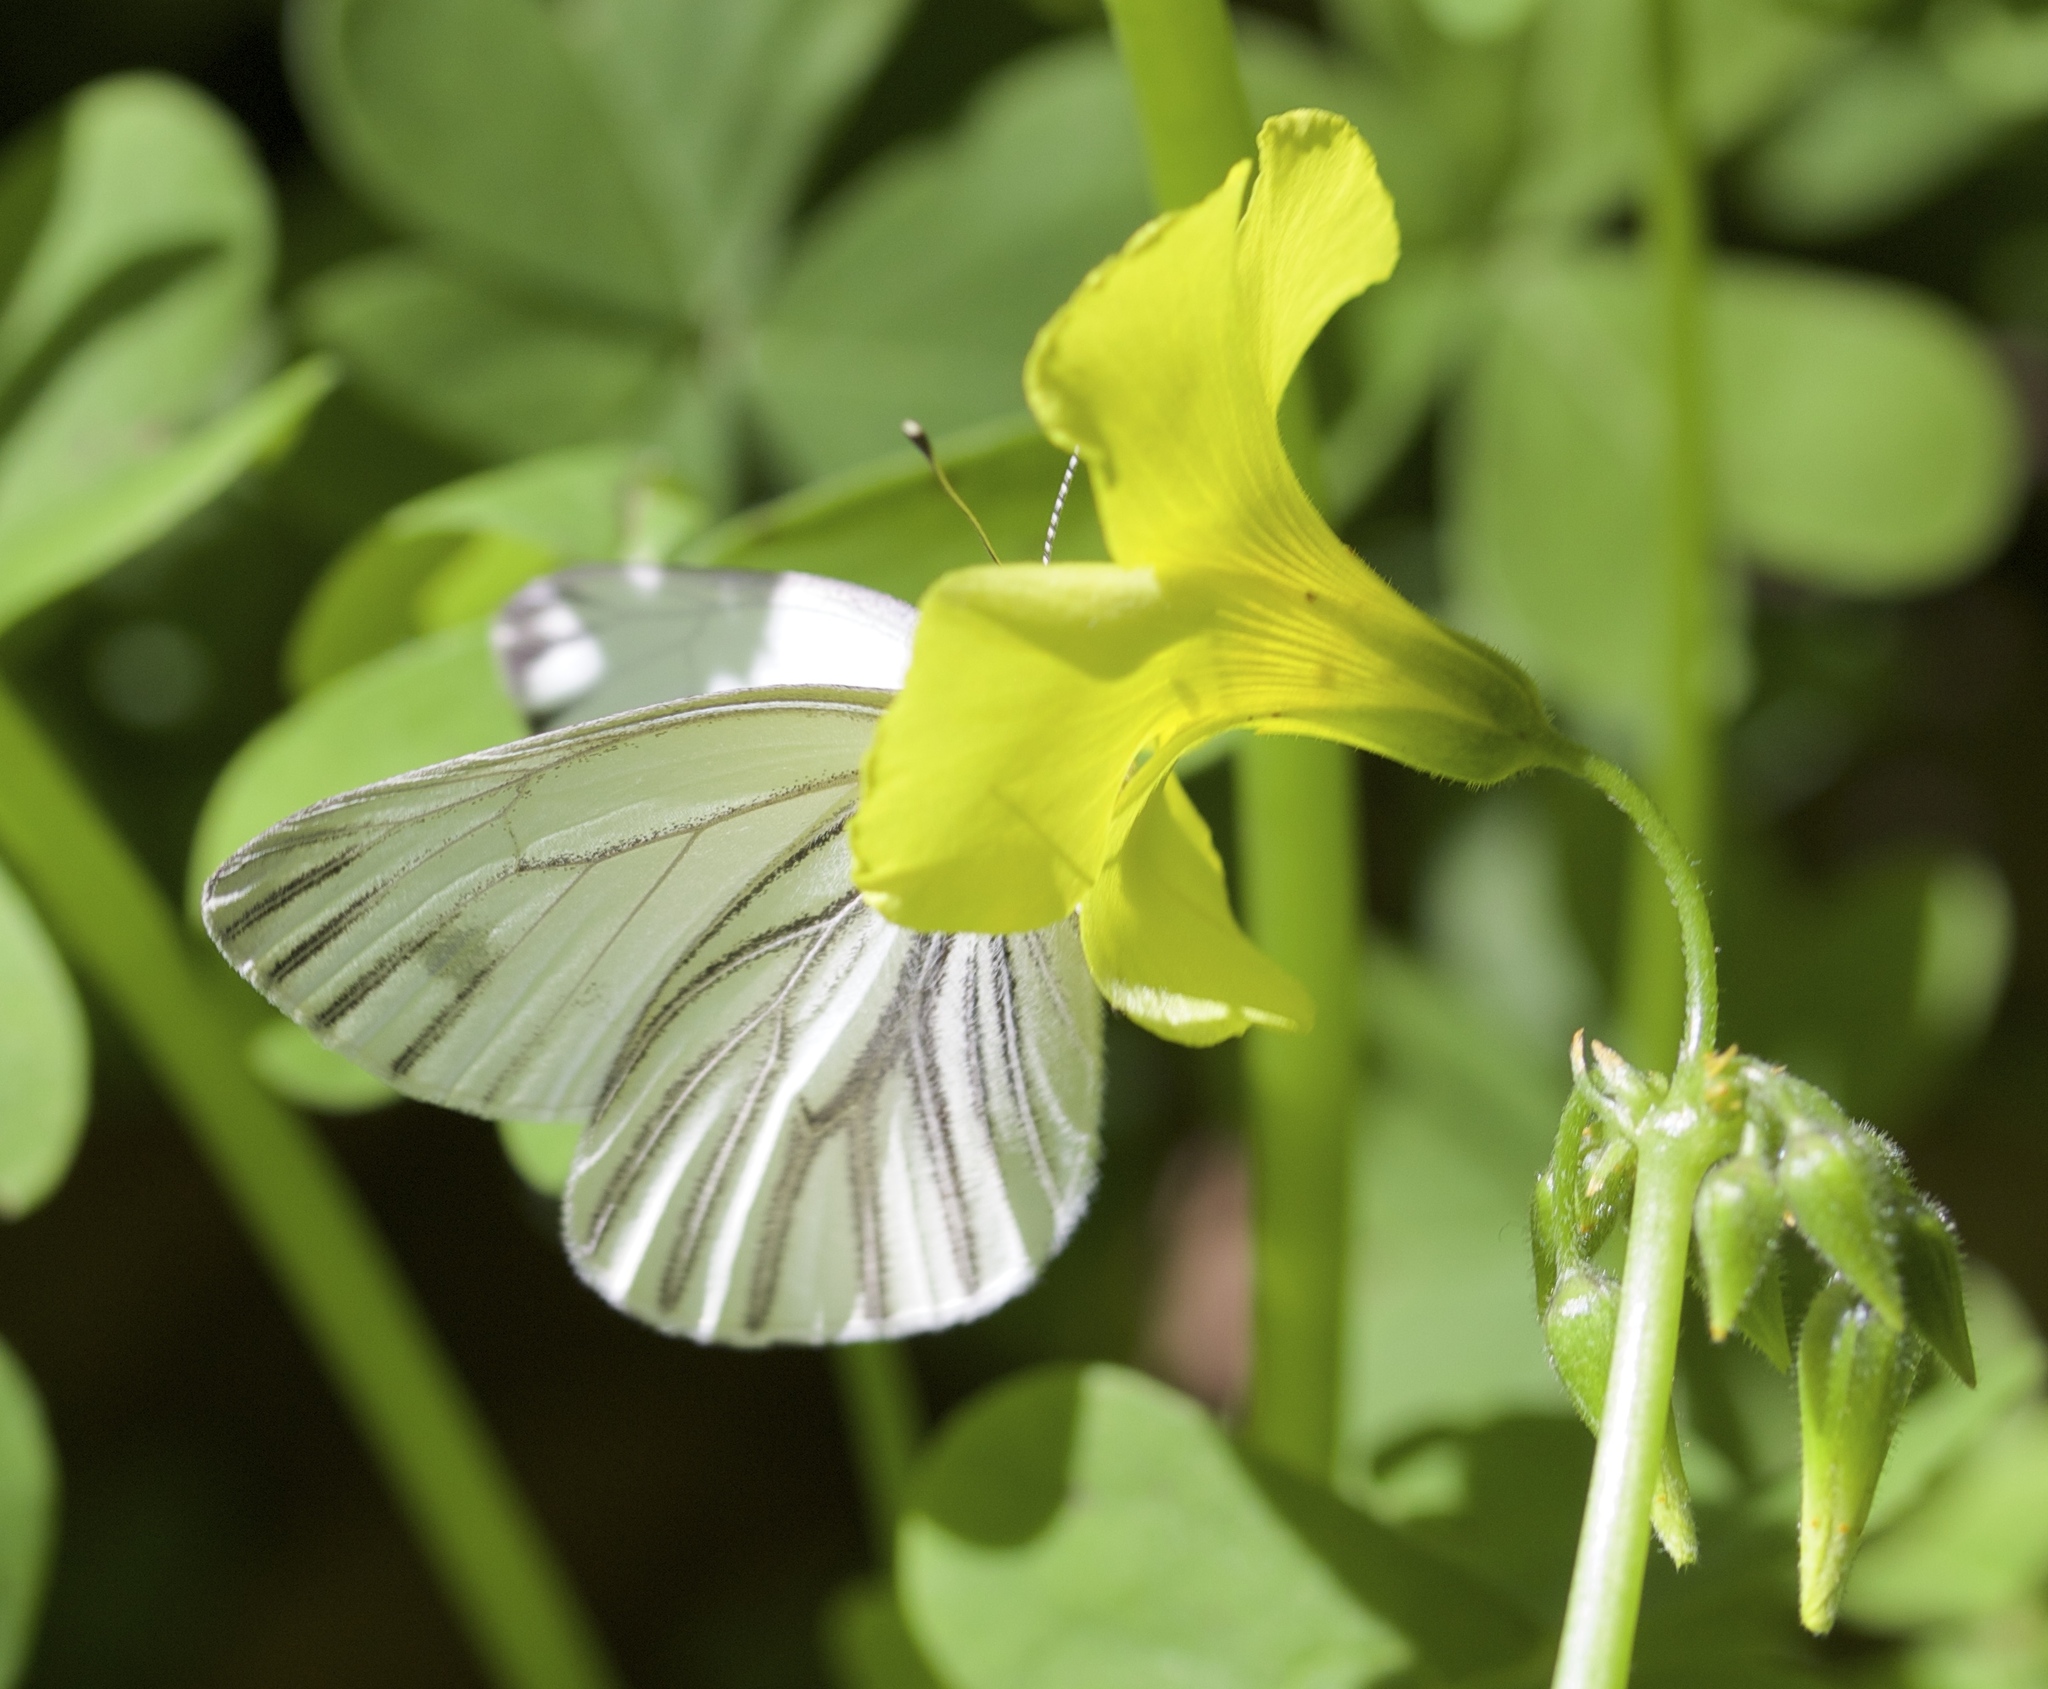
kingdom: Animalia
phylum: Arthropoda
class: Insecta
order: Lepidoptera
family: Pieridae
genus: Pieris
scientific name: Pieris marginalis
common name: Margined white
